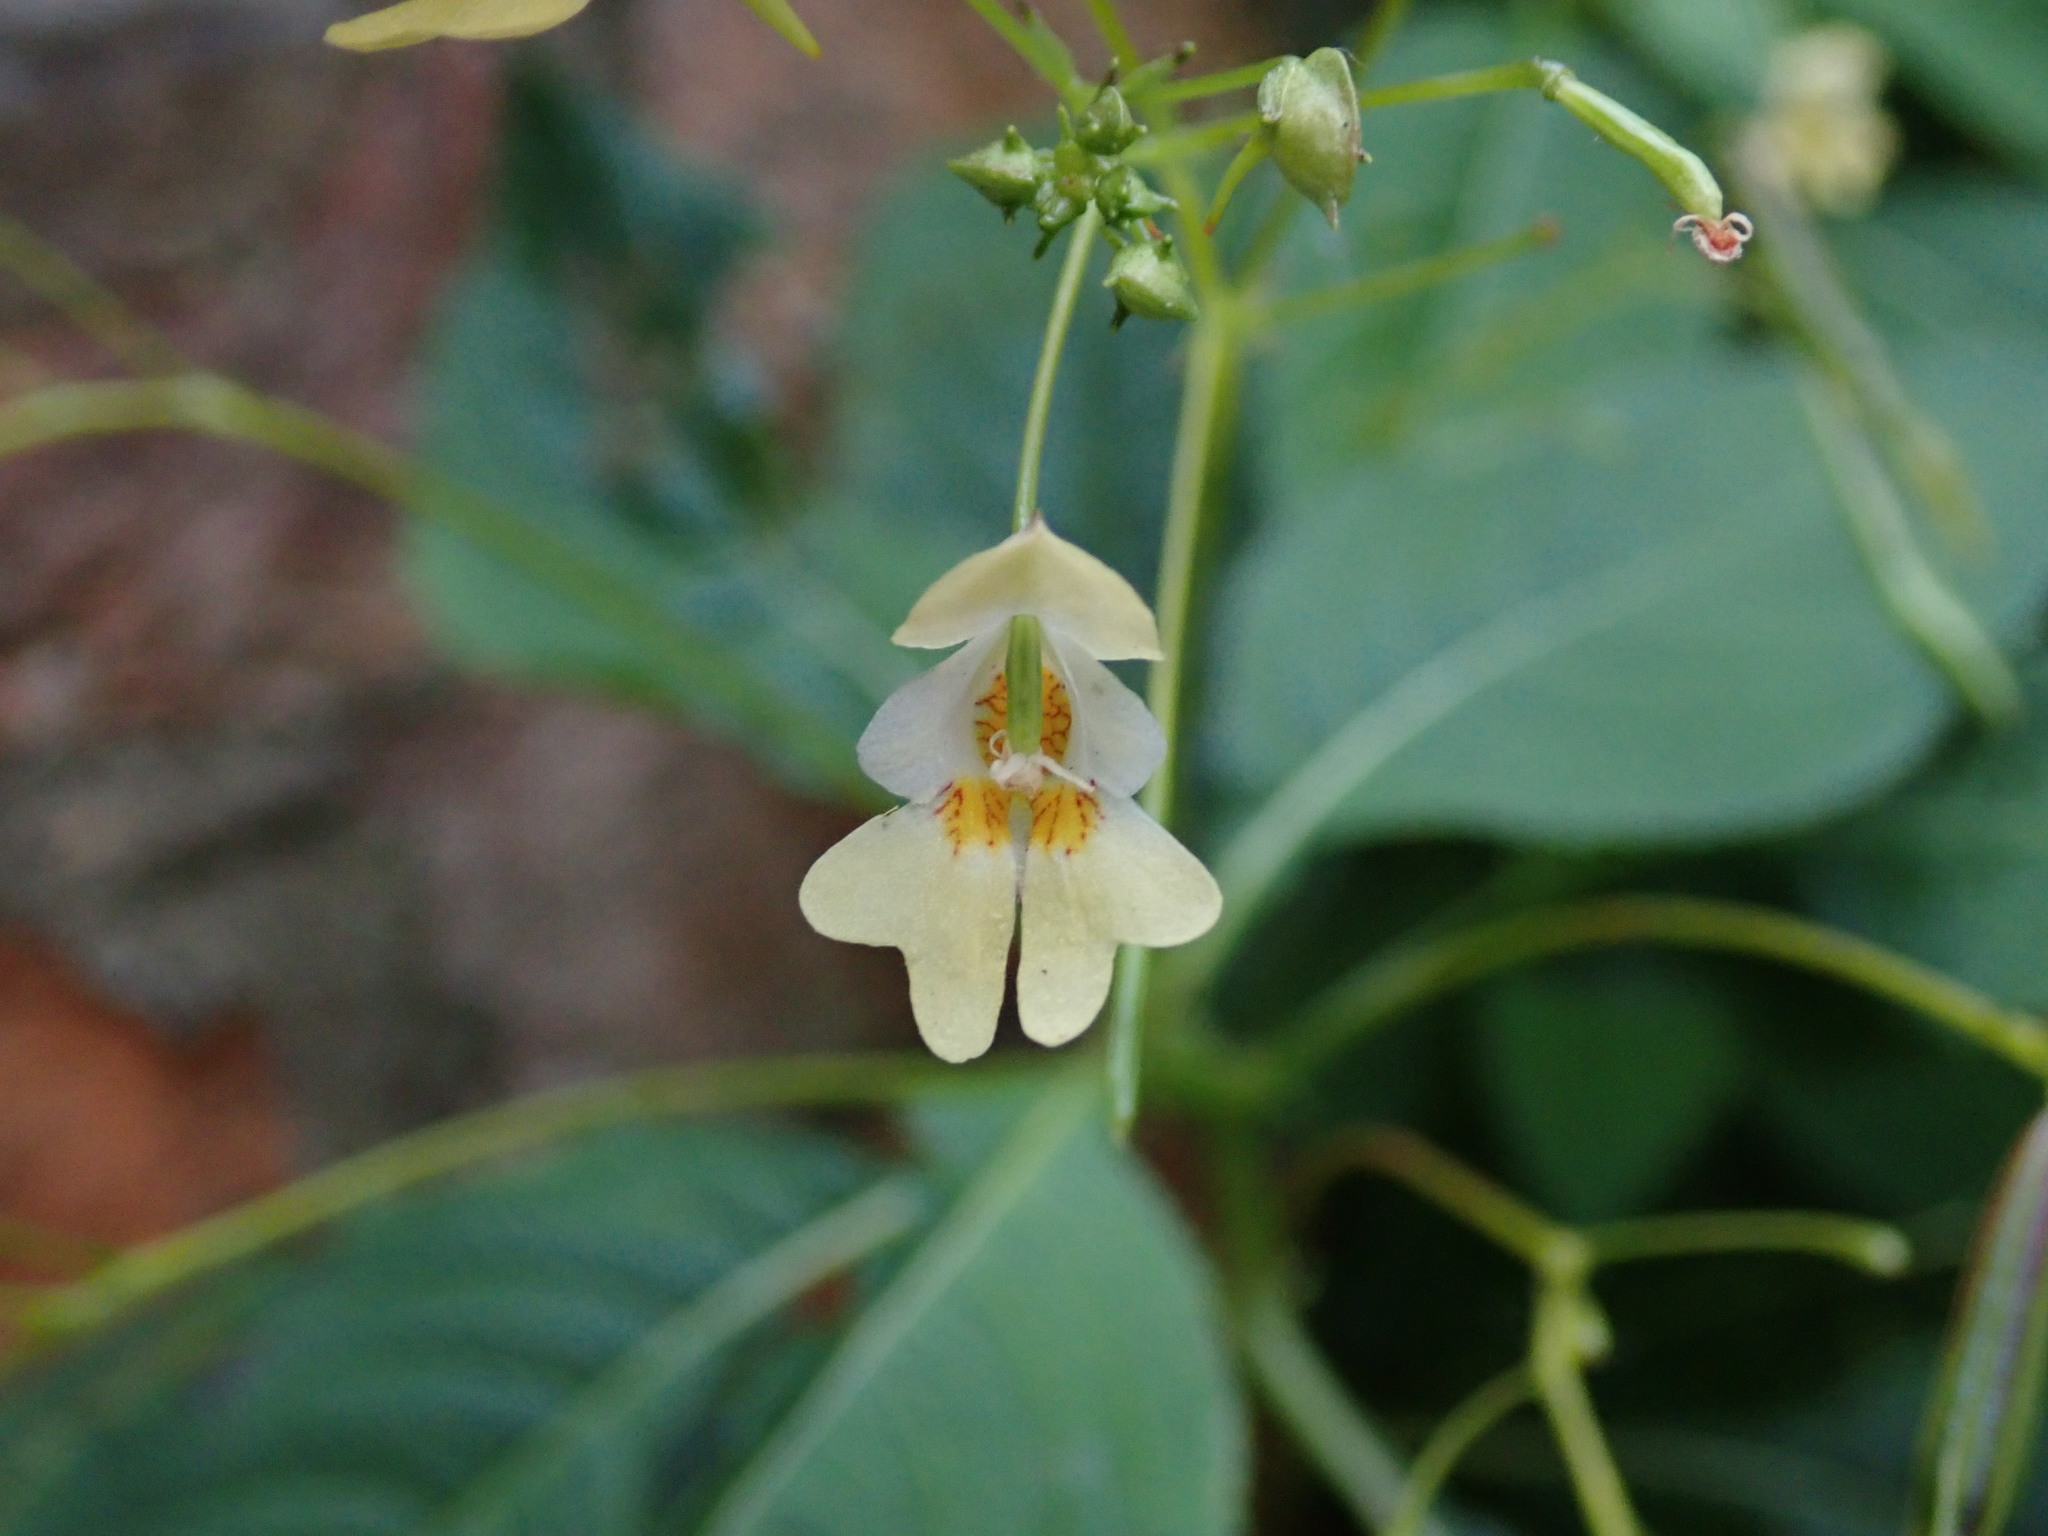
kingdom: Plantae
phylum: Tracheophyta
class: Magnoliopsida
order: Ericales
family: Balsaminaceae
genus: Impatiens
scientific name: Impatiens parviflora
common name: Small balsam
